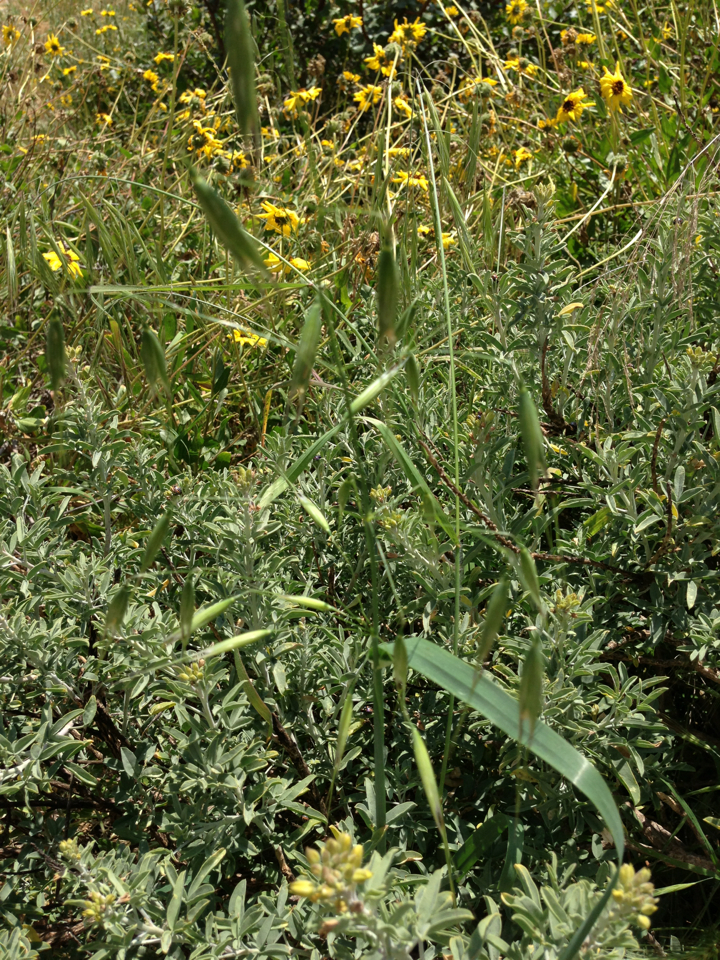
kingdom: Plantae
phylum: Tracheophyta
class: Liliopsida
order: Poales
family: Poaceae
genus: Avena
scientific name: Avena fatua
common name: Wild oat
